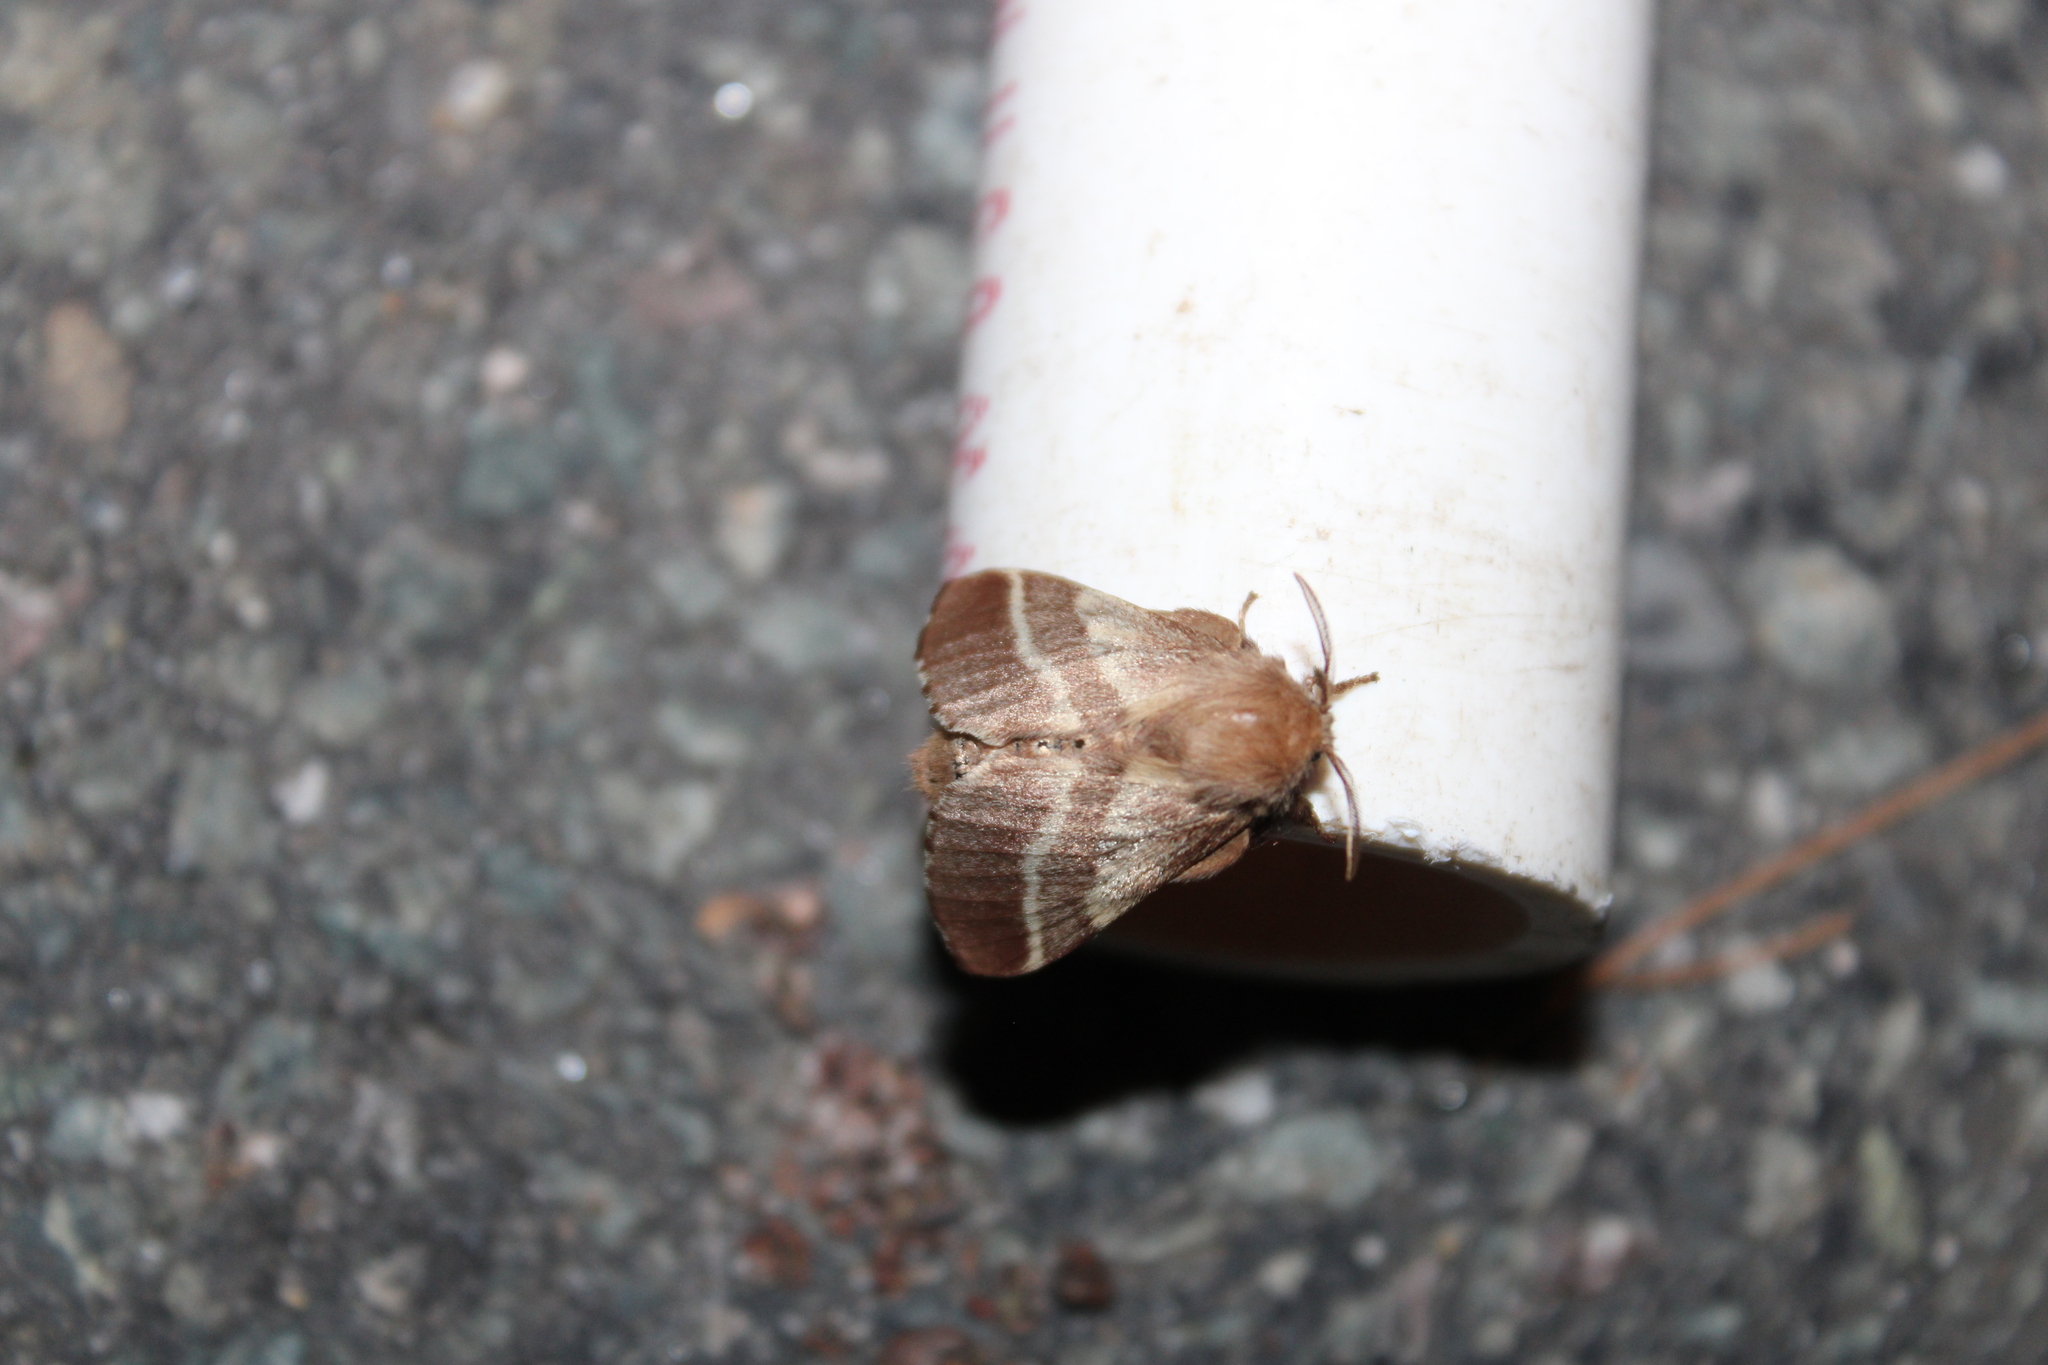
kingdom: Animalia
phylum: Arthropoda
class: Insecta
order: Lepidoptera
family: Lasiocampidae
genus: Malacosoma
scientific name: Malacosoma americana
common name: Eastern tent caterpillar moth
